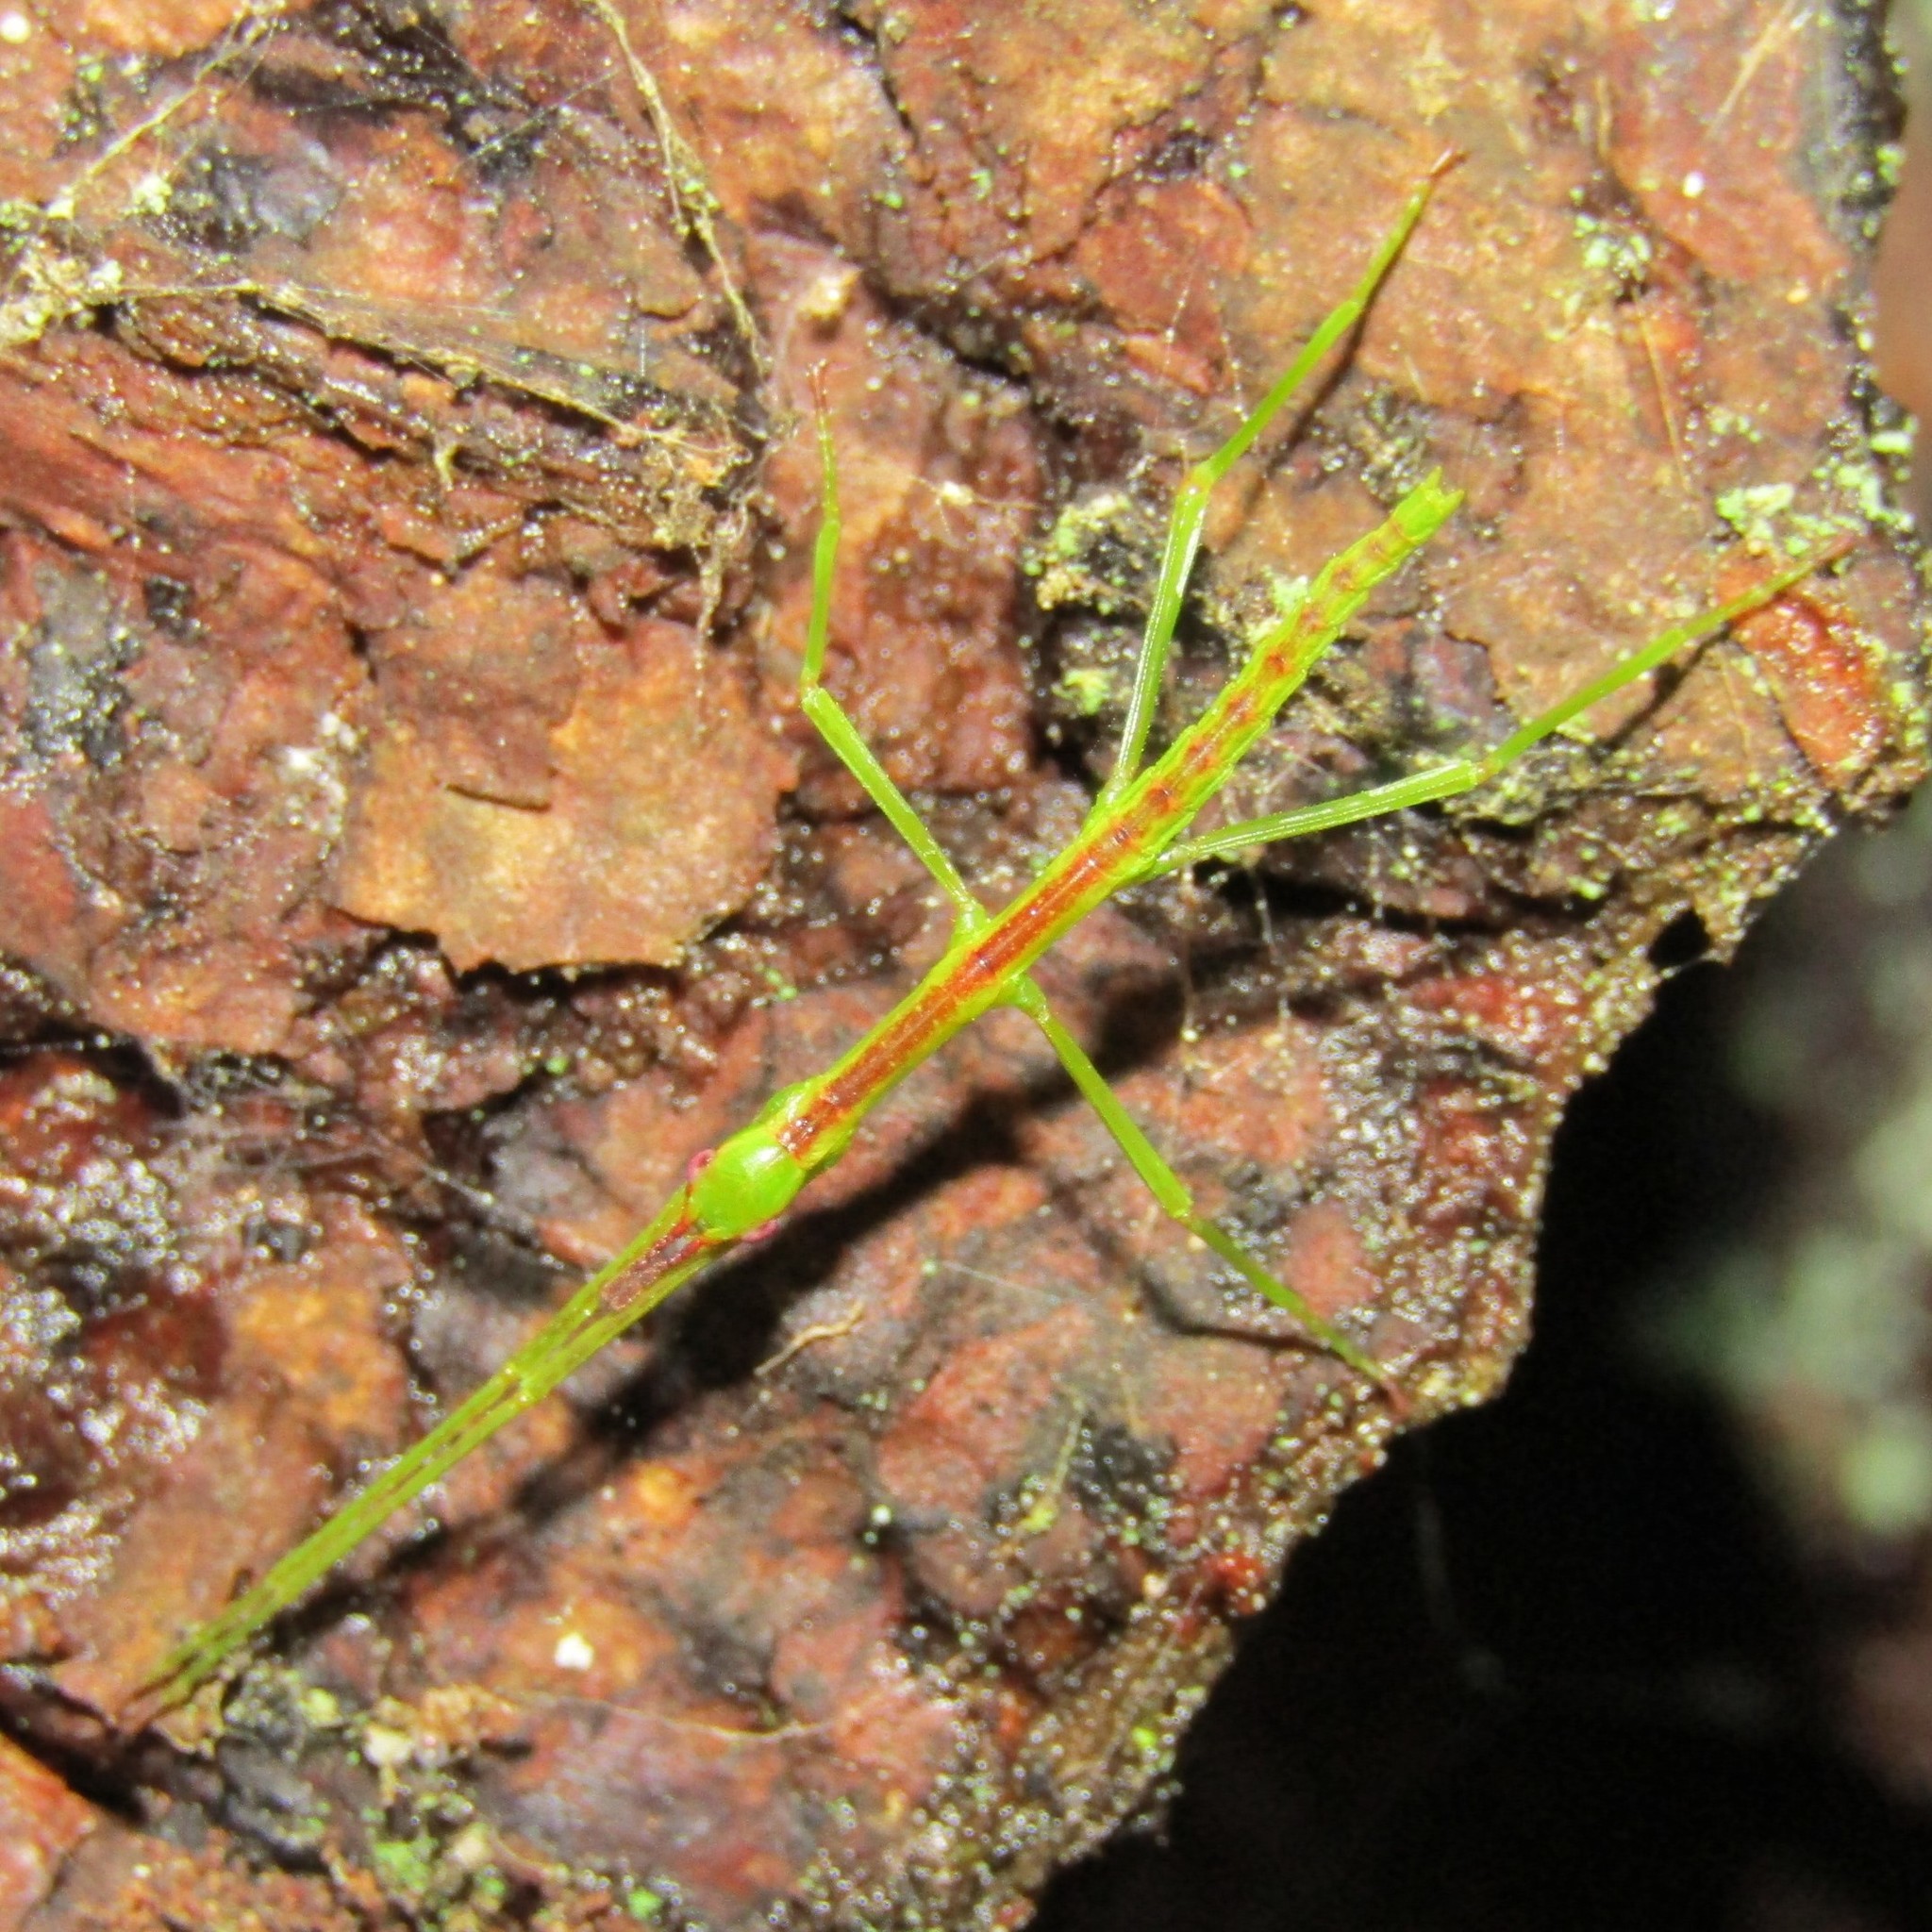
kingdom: Animalia
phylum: Arthropoda
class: Insecta
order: Phasmida
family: Phasmatidae
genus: Clitarchus
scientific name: Clitarchus hookeri
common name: Smooth stick insect
